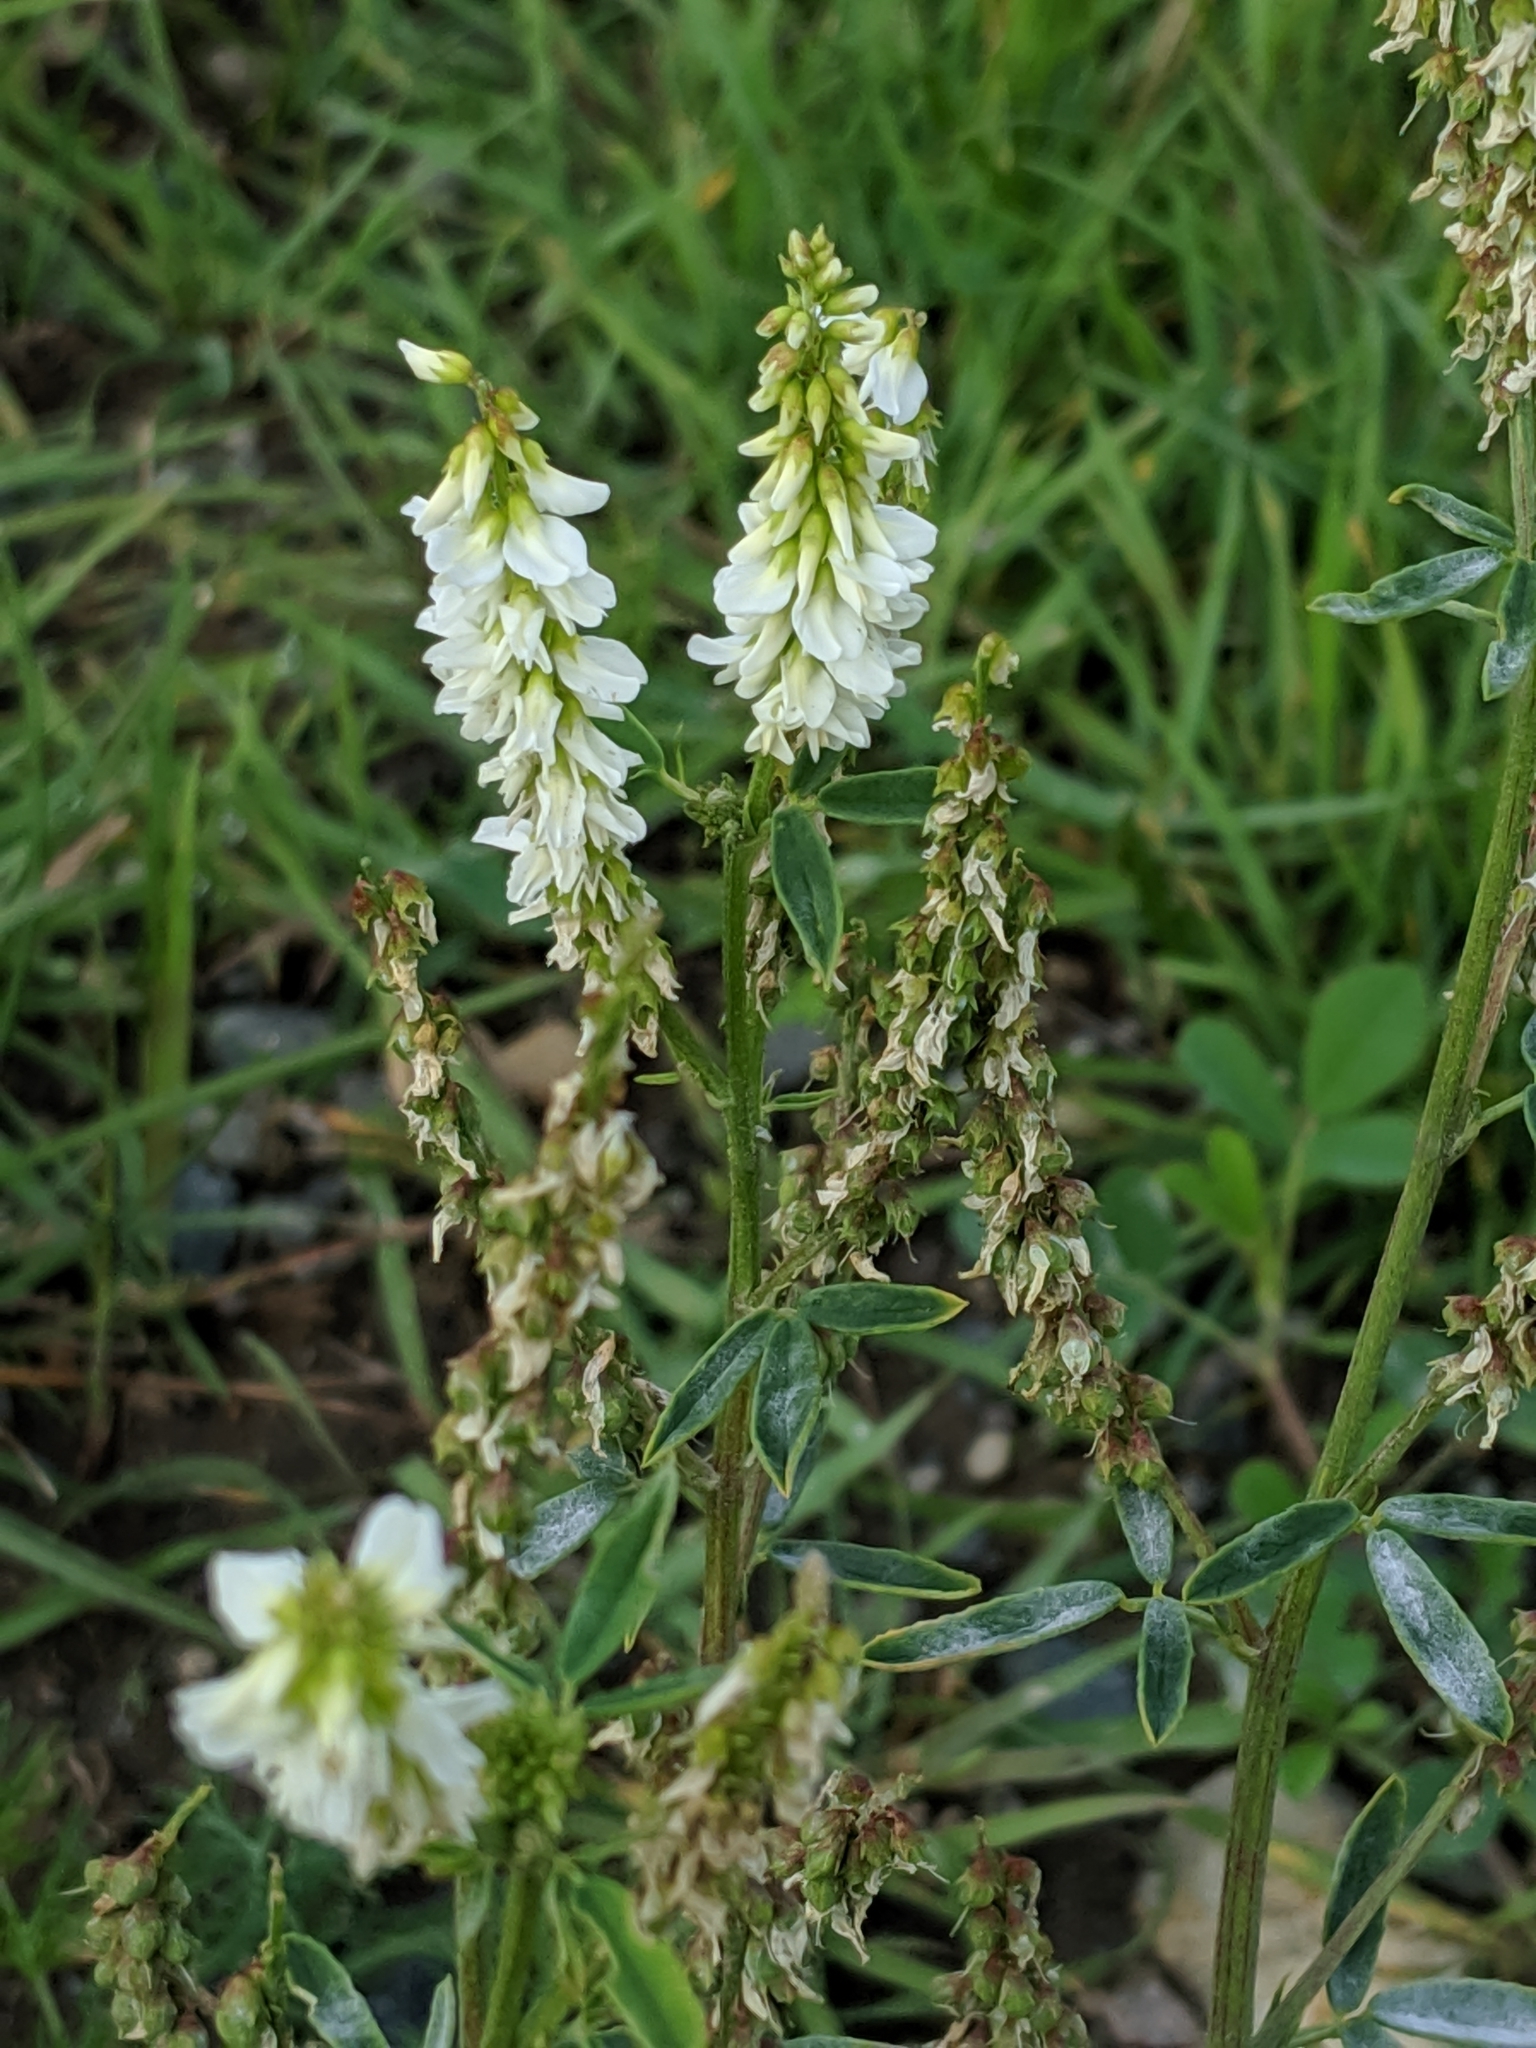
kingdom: Plantae
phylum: Tracheophyta
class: Magnoliopsida
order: Fabales
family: Fabaceae
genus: Melilotus
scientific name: Melilotus albus
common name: White melilot
